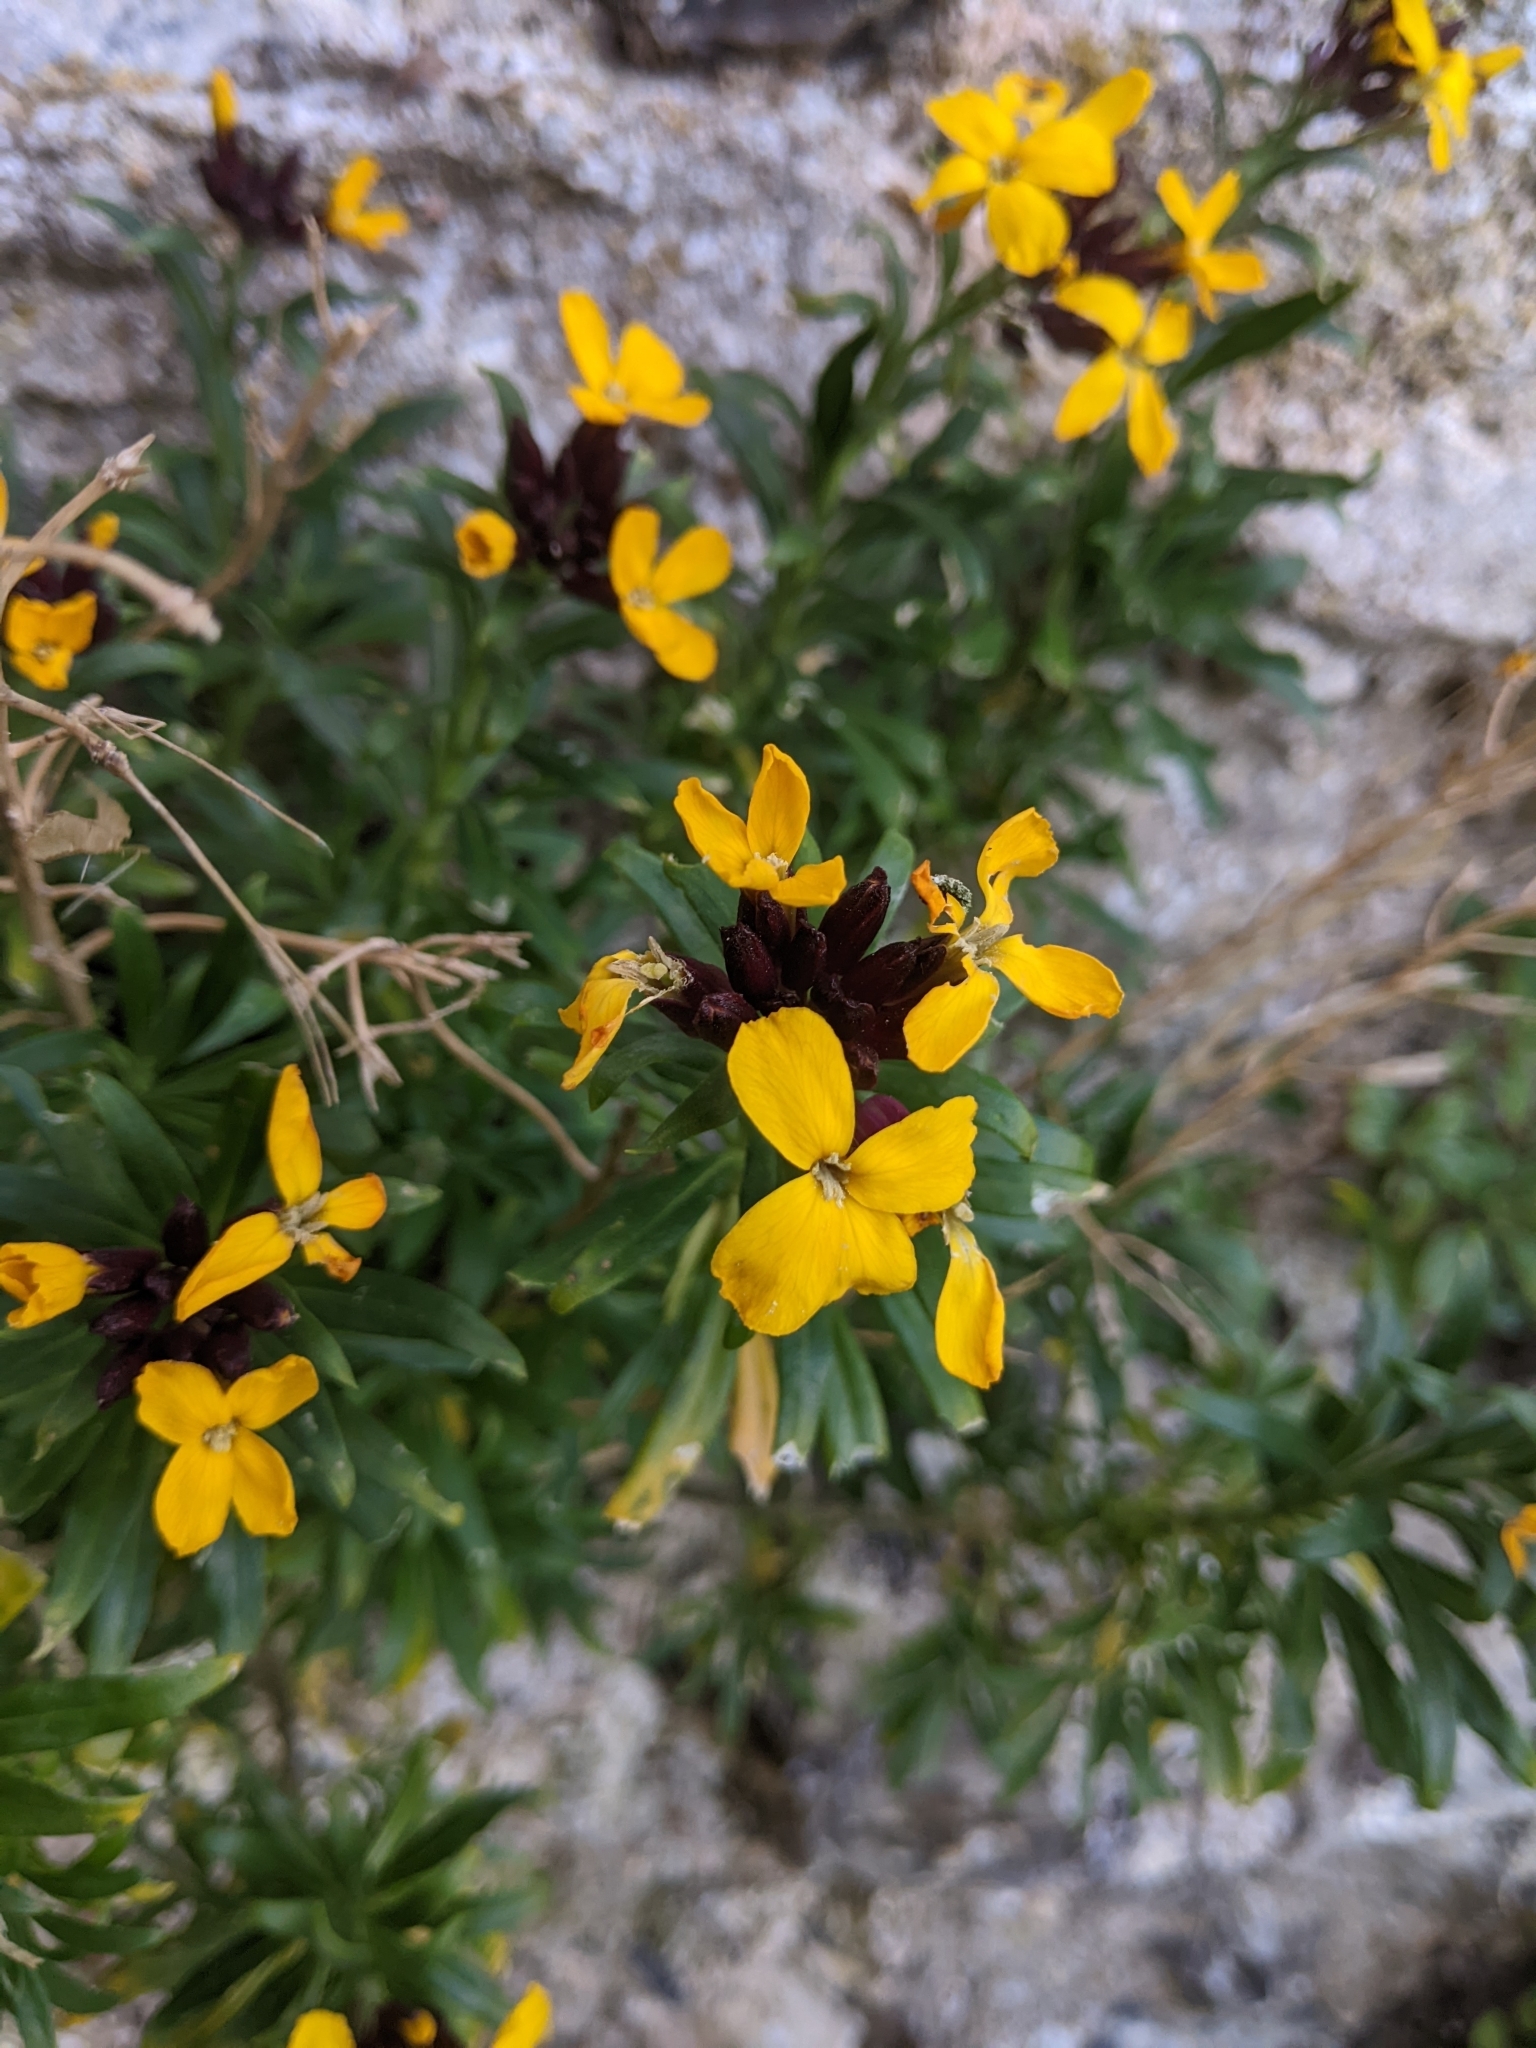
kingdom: Plantae
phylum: Tracheophyta
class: Magnoliopsida
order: Brassicales
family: Brassicaceae
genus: Erysimum
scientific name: Erysimum cheiri
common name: Wallflower
